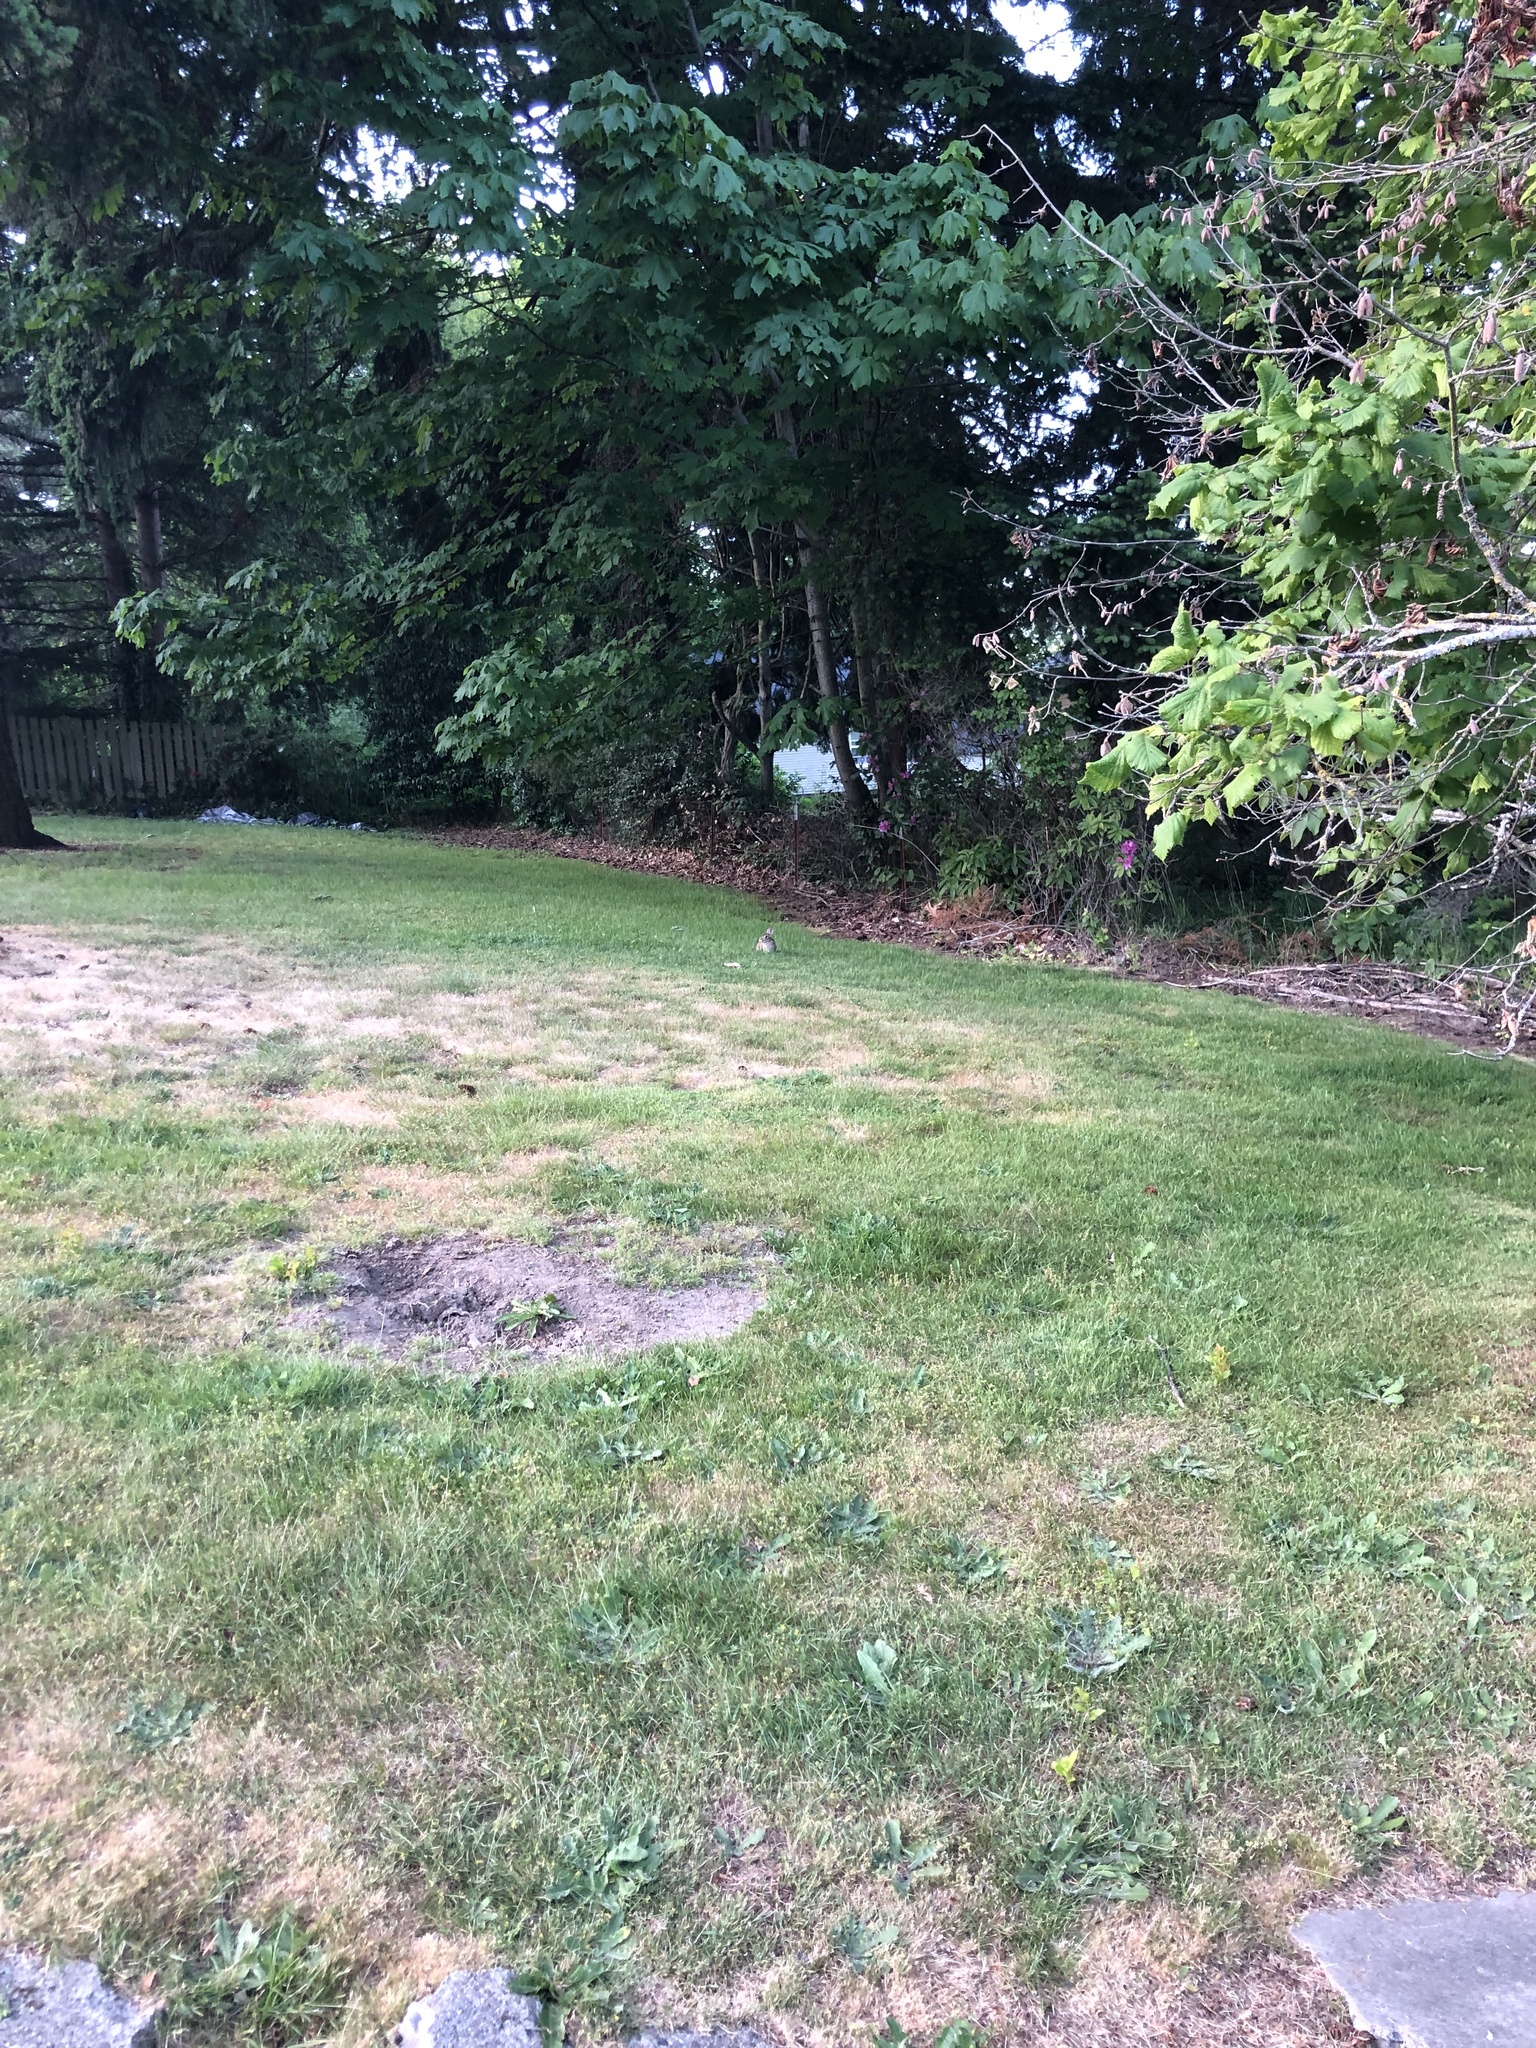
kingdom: Animalia
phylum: Chordata
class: Mammalia
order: Lagomorpha
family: Leporidae
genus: Sylvilagus
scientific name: Sylvilagus floridanus
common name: Eastern cottontail
